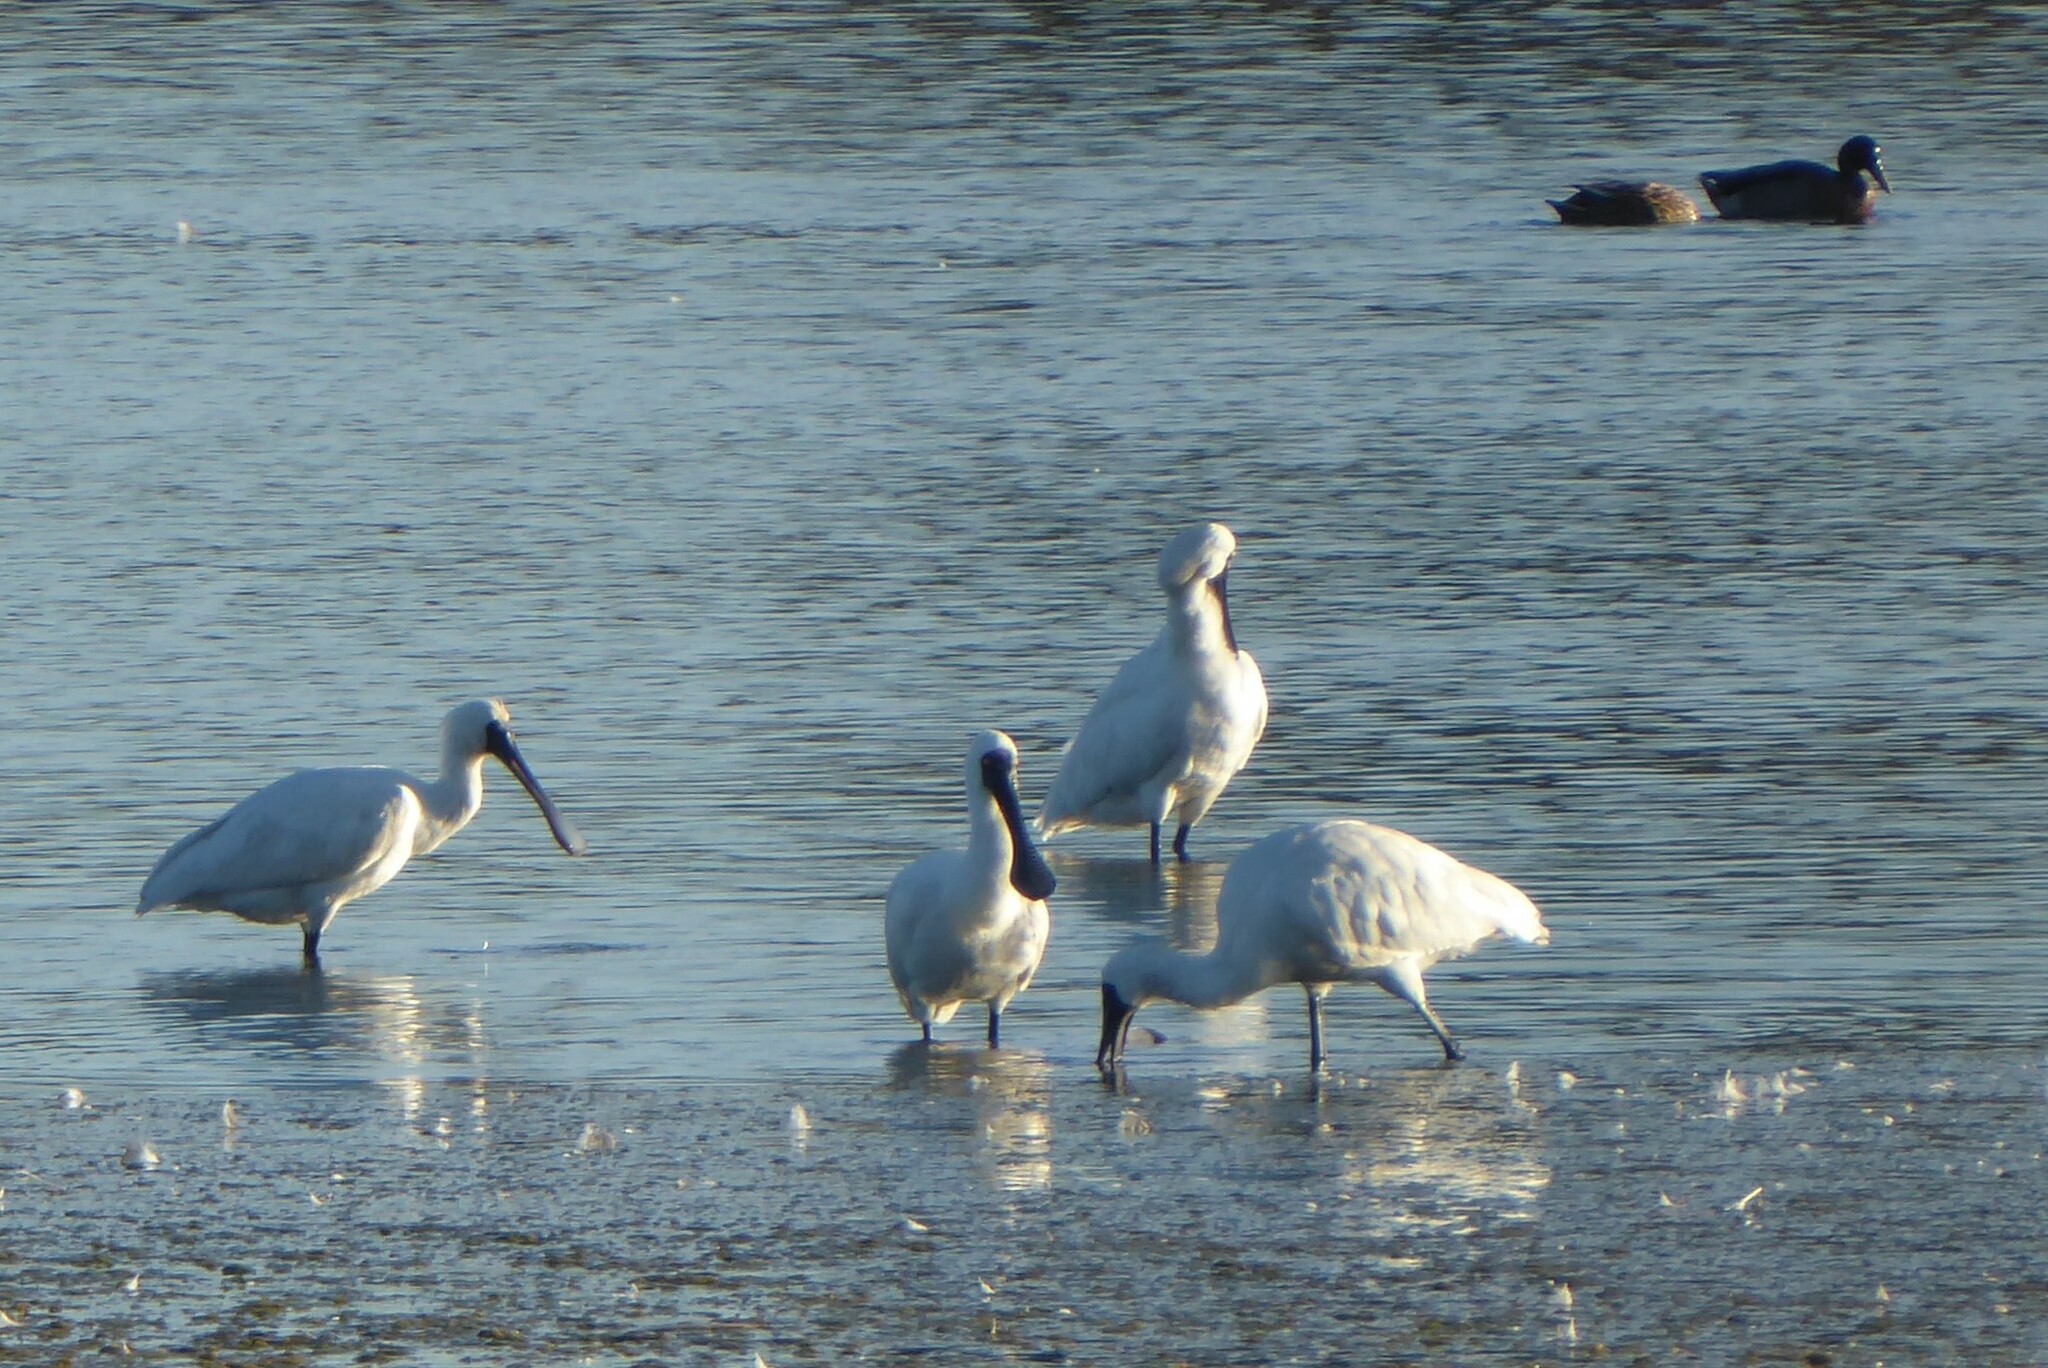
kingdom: Animalia
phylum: Chordata
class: Aves
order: Pelecaniformes
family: Threskiornithidae
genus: Platalea
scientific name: Platalea regia
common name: Royal spoonbill
